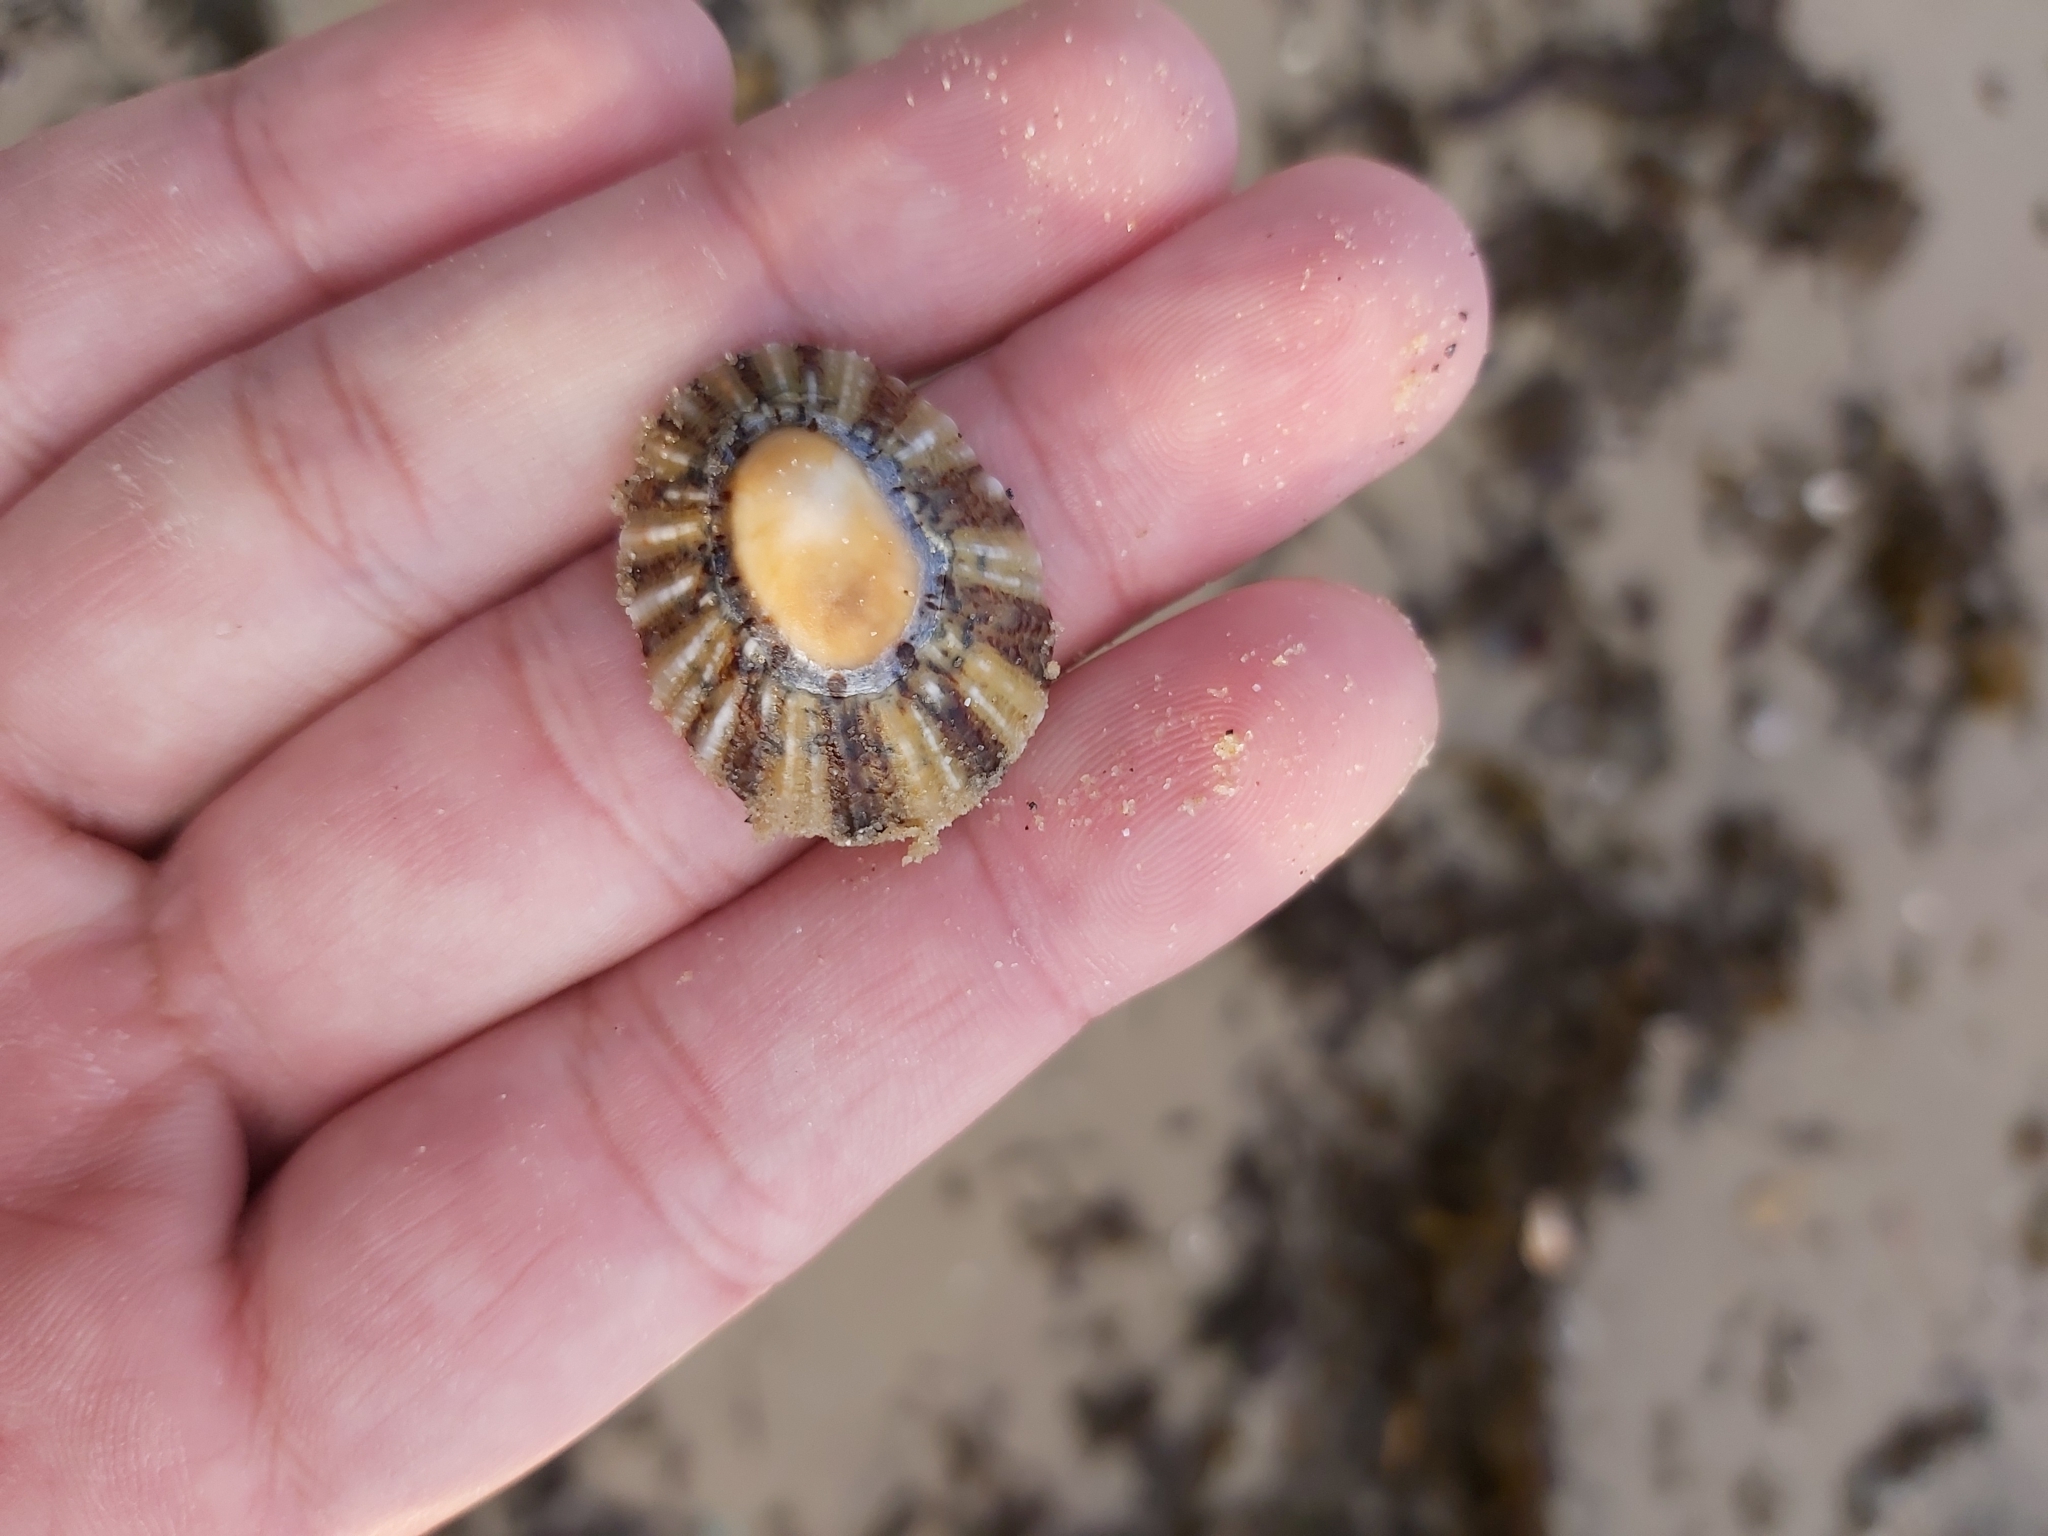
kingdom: Animalia
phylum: Mollusca
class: Gastropoda
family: Nacellidae
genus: Cellana
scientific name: Cellana tramoserica
